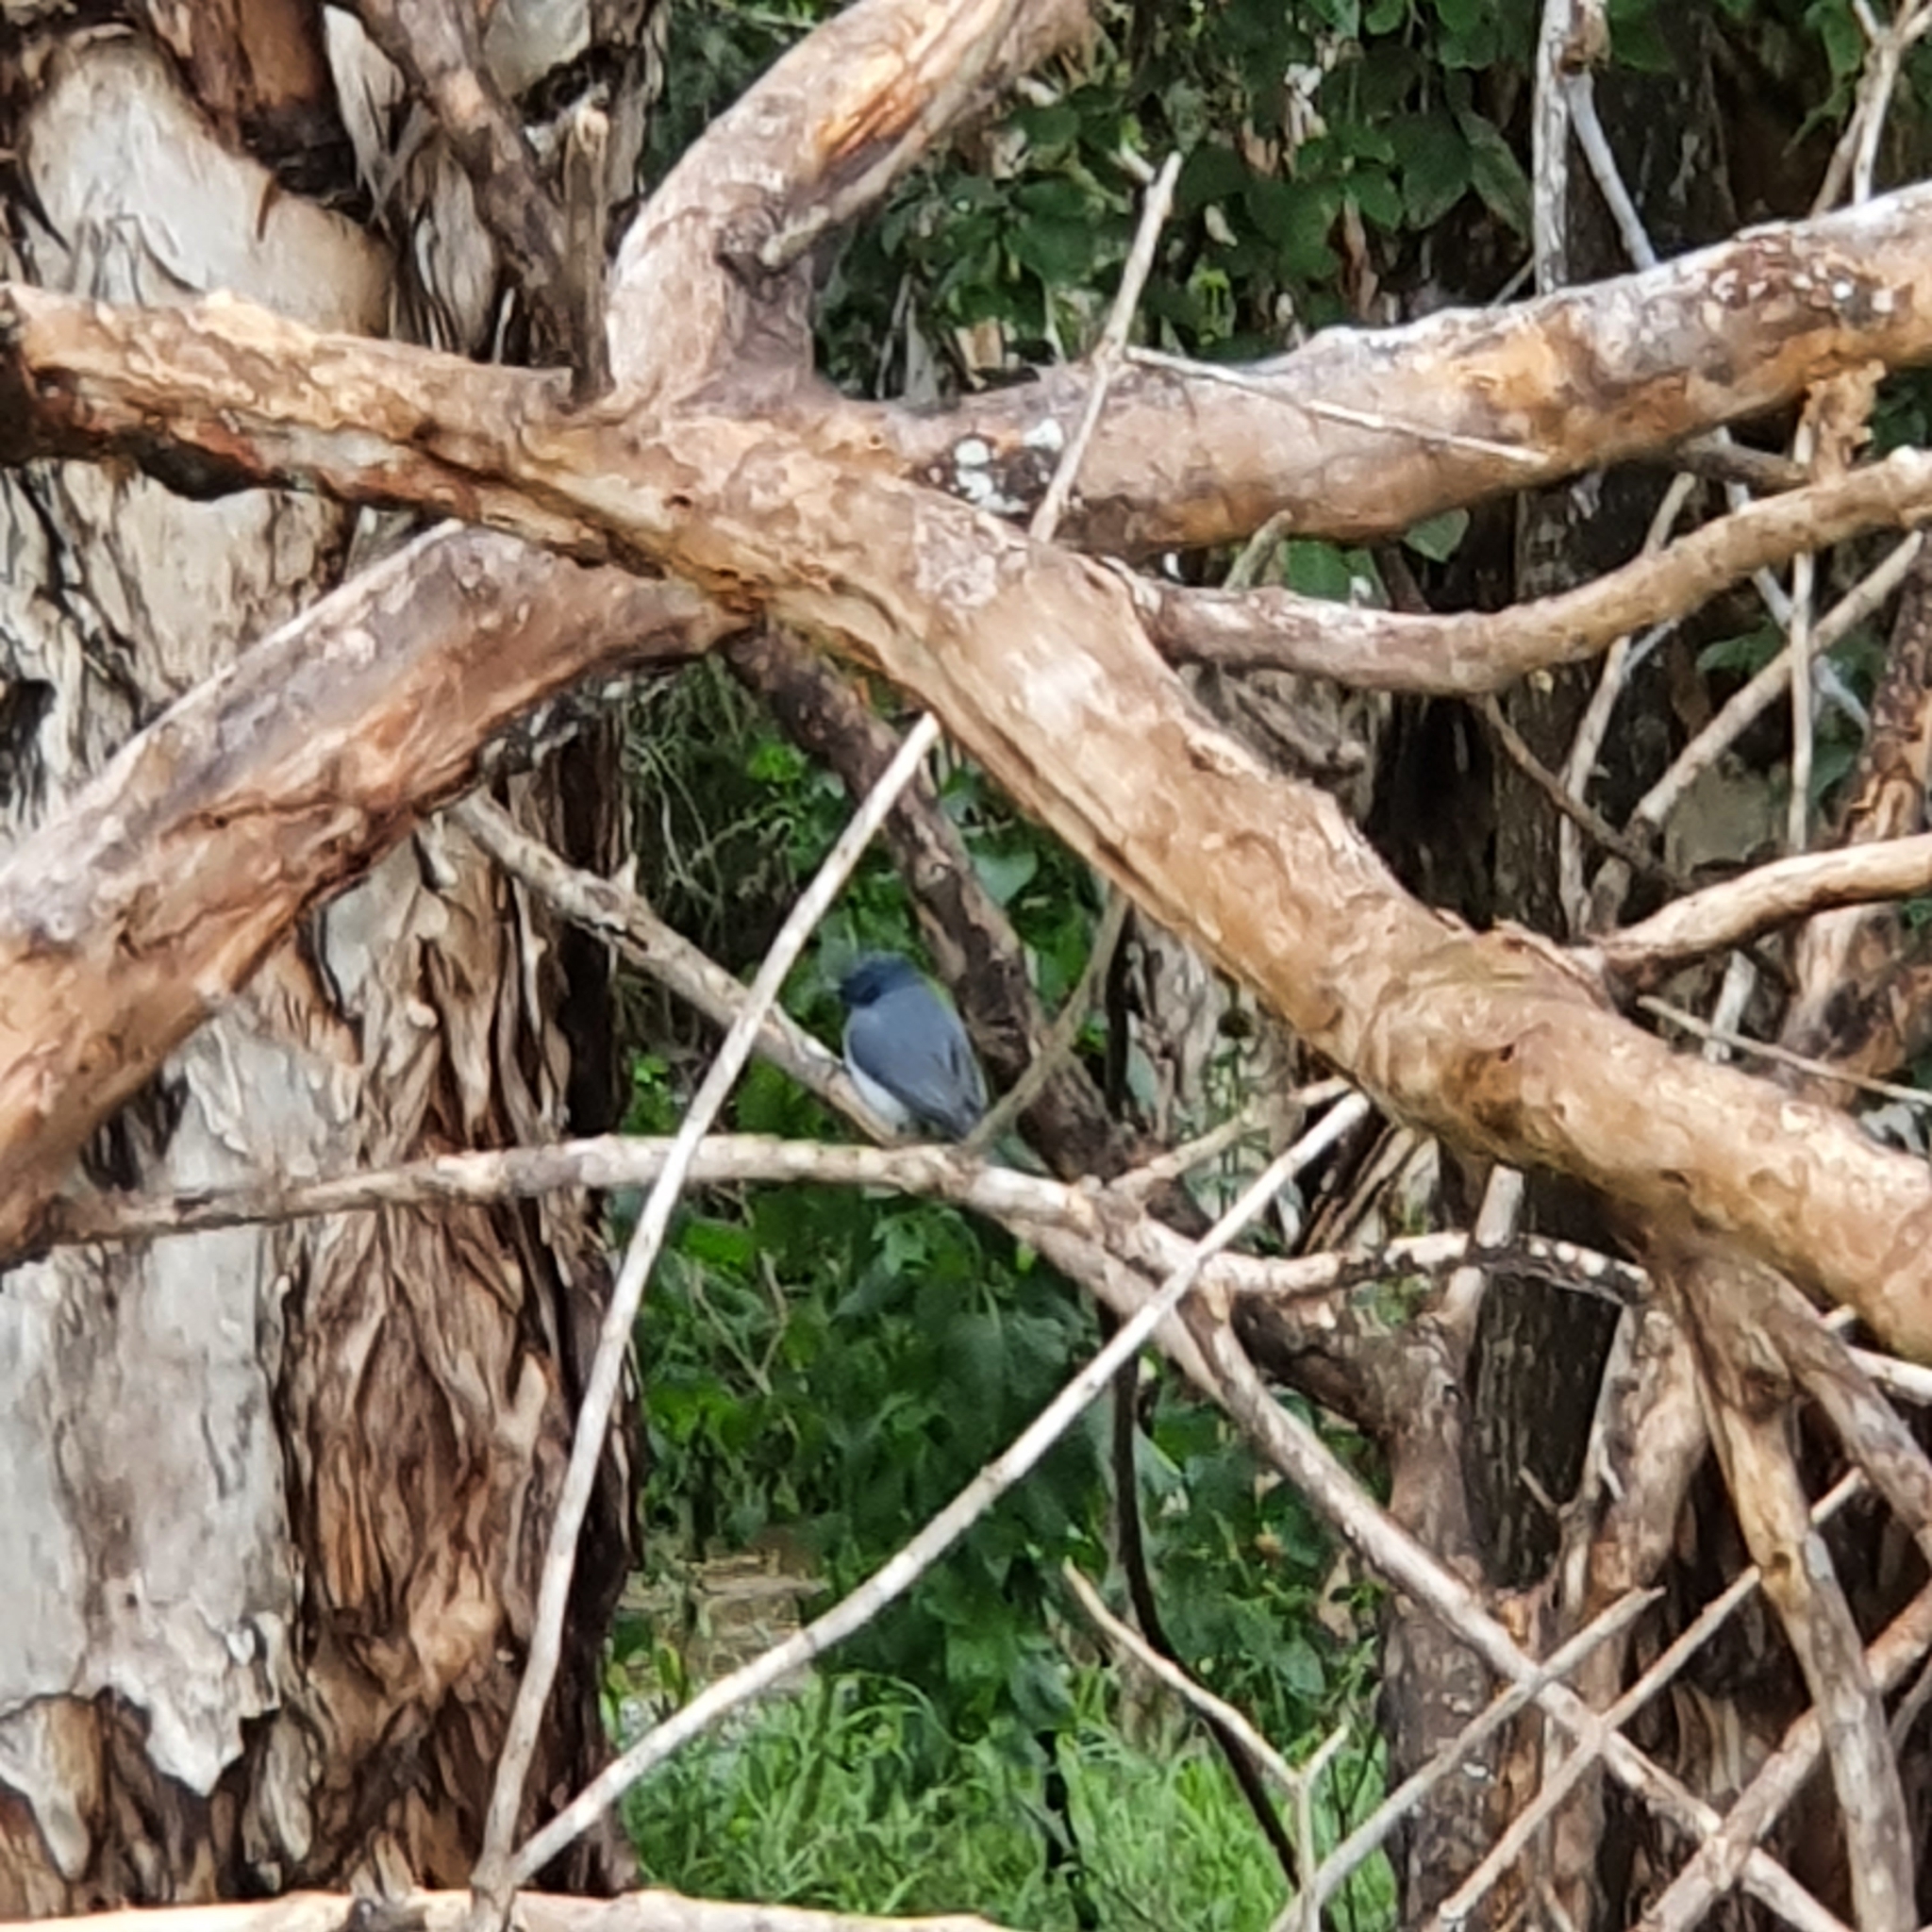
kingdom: Animalia
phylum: Chordata
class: Aves
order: Passeriformes
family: Monarchidae
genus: Myiagra
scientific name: Myiagra rubecula
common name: Leaden flycatcher
